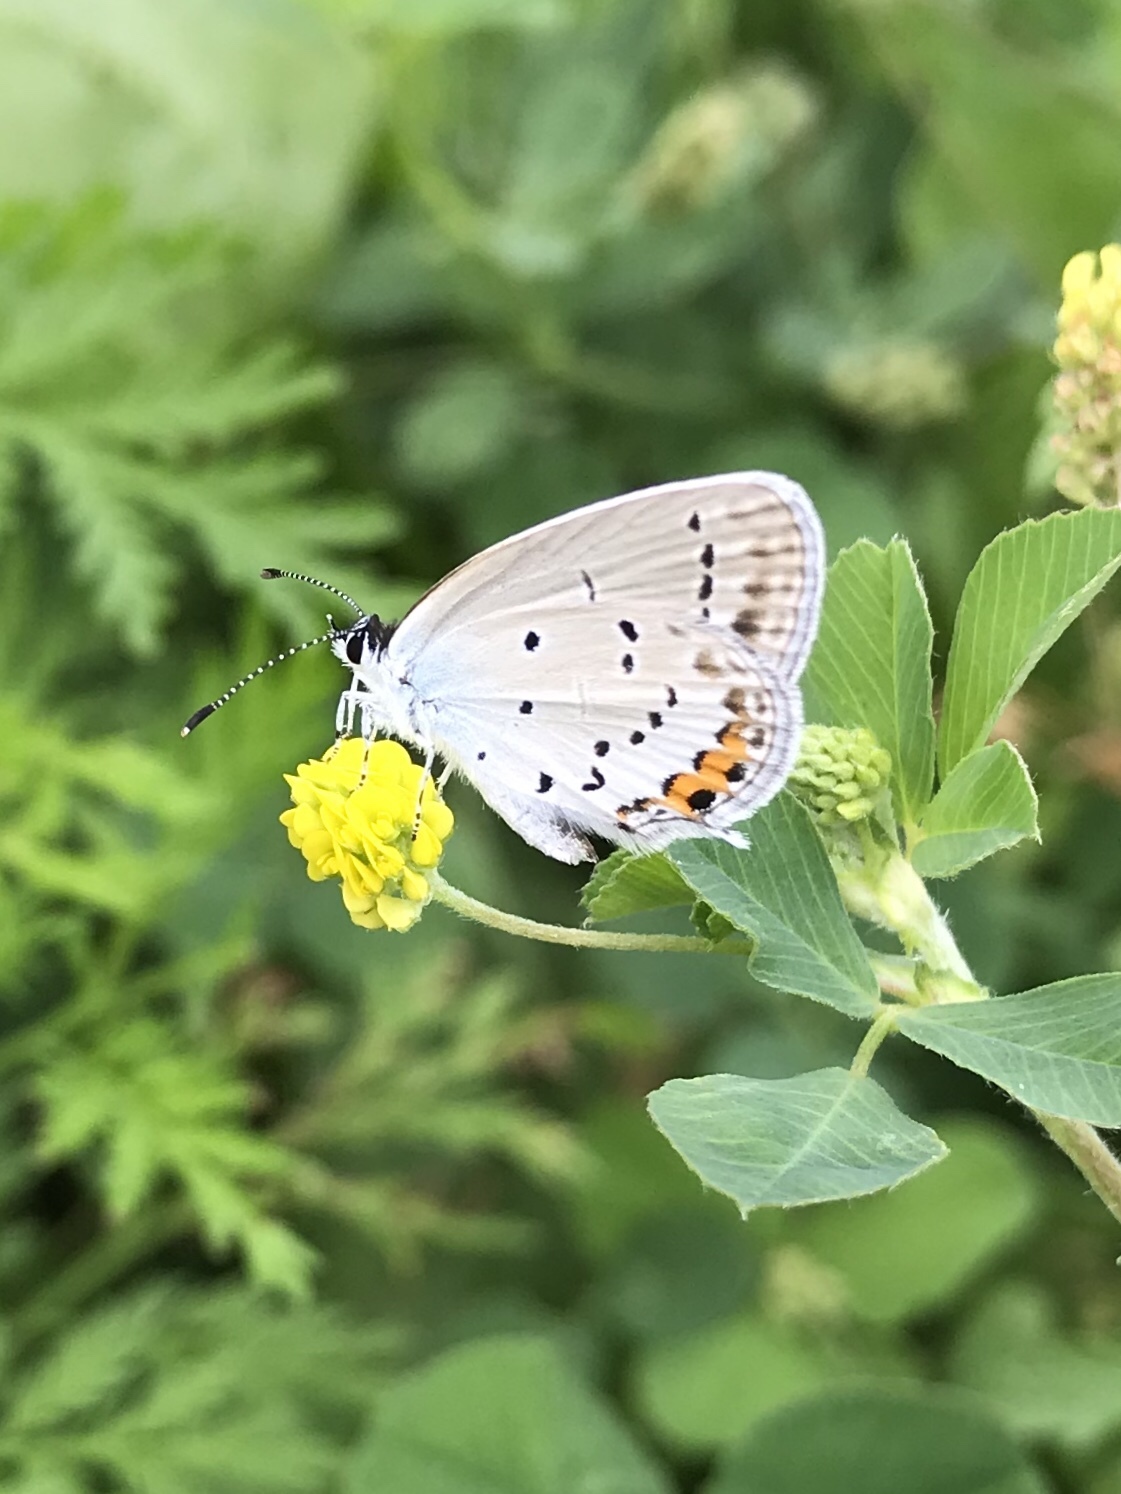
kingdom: Animalia
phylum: Arthropoda
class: Insecta
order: Lepidoptera
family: Lycaenidae
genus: Elkalyce
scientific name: Elkalyce argiades
